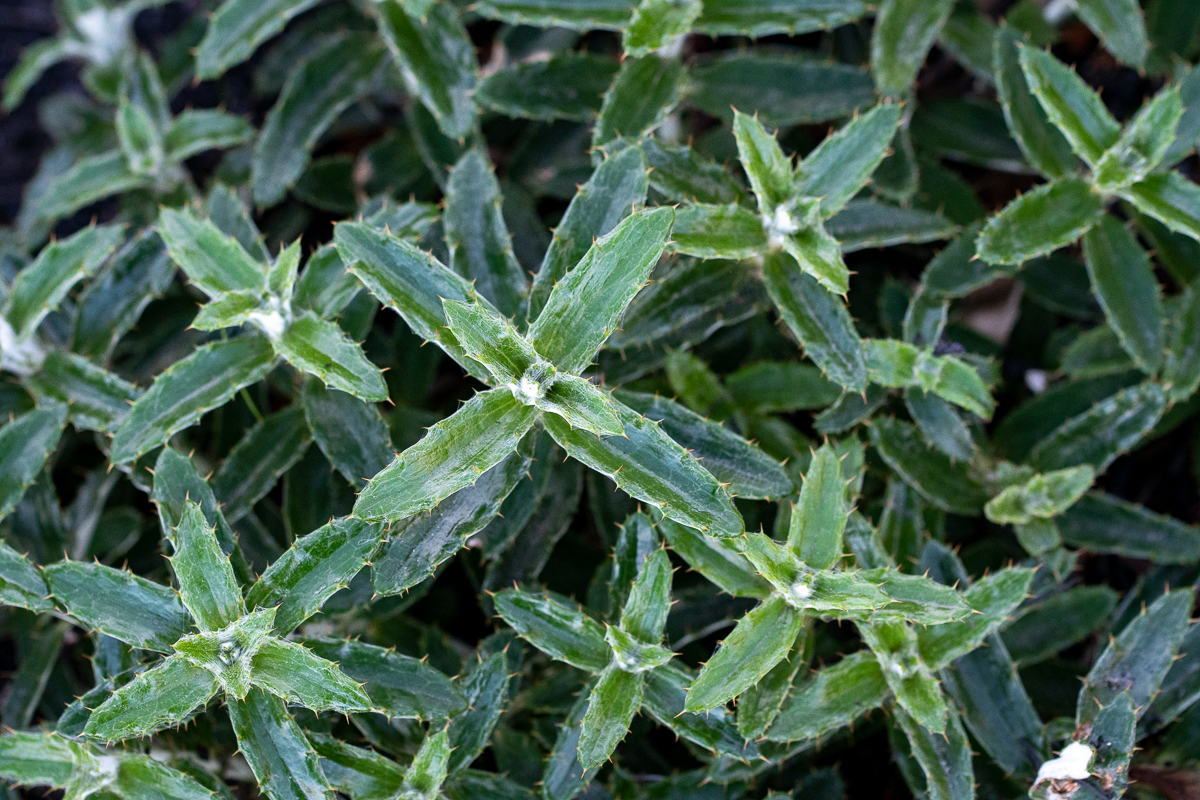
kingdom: Plantae
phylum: Tracheophyta
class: Magnoliopsida
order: Asterales
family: Asteraceae
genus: Berkheya
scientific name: Berkheya barbata
